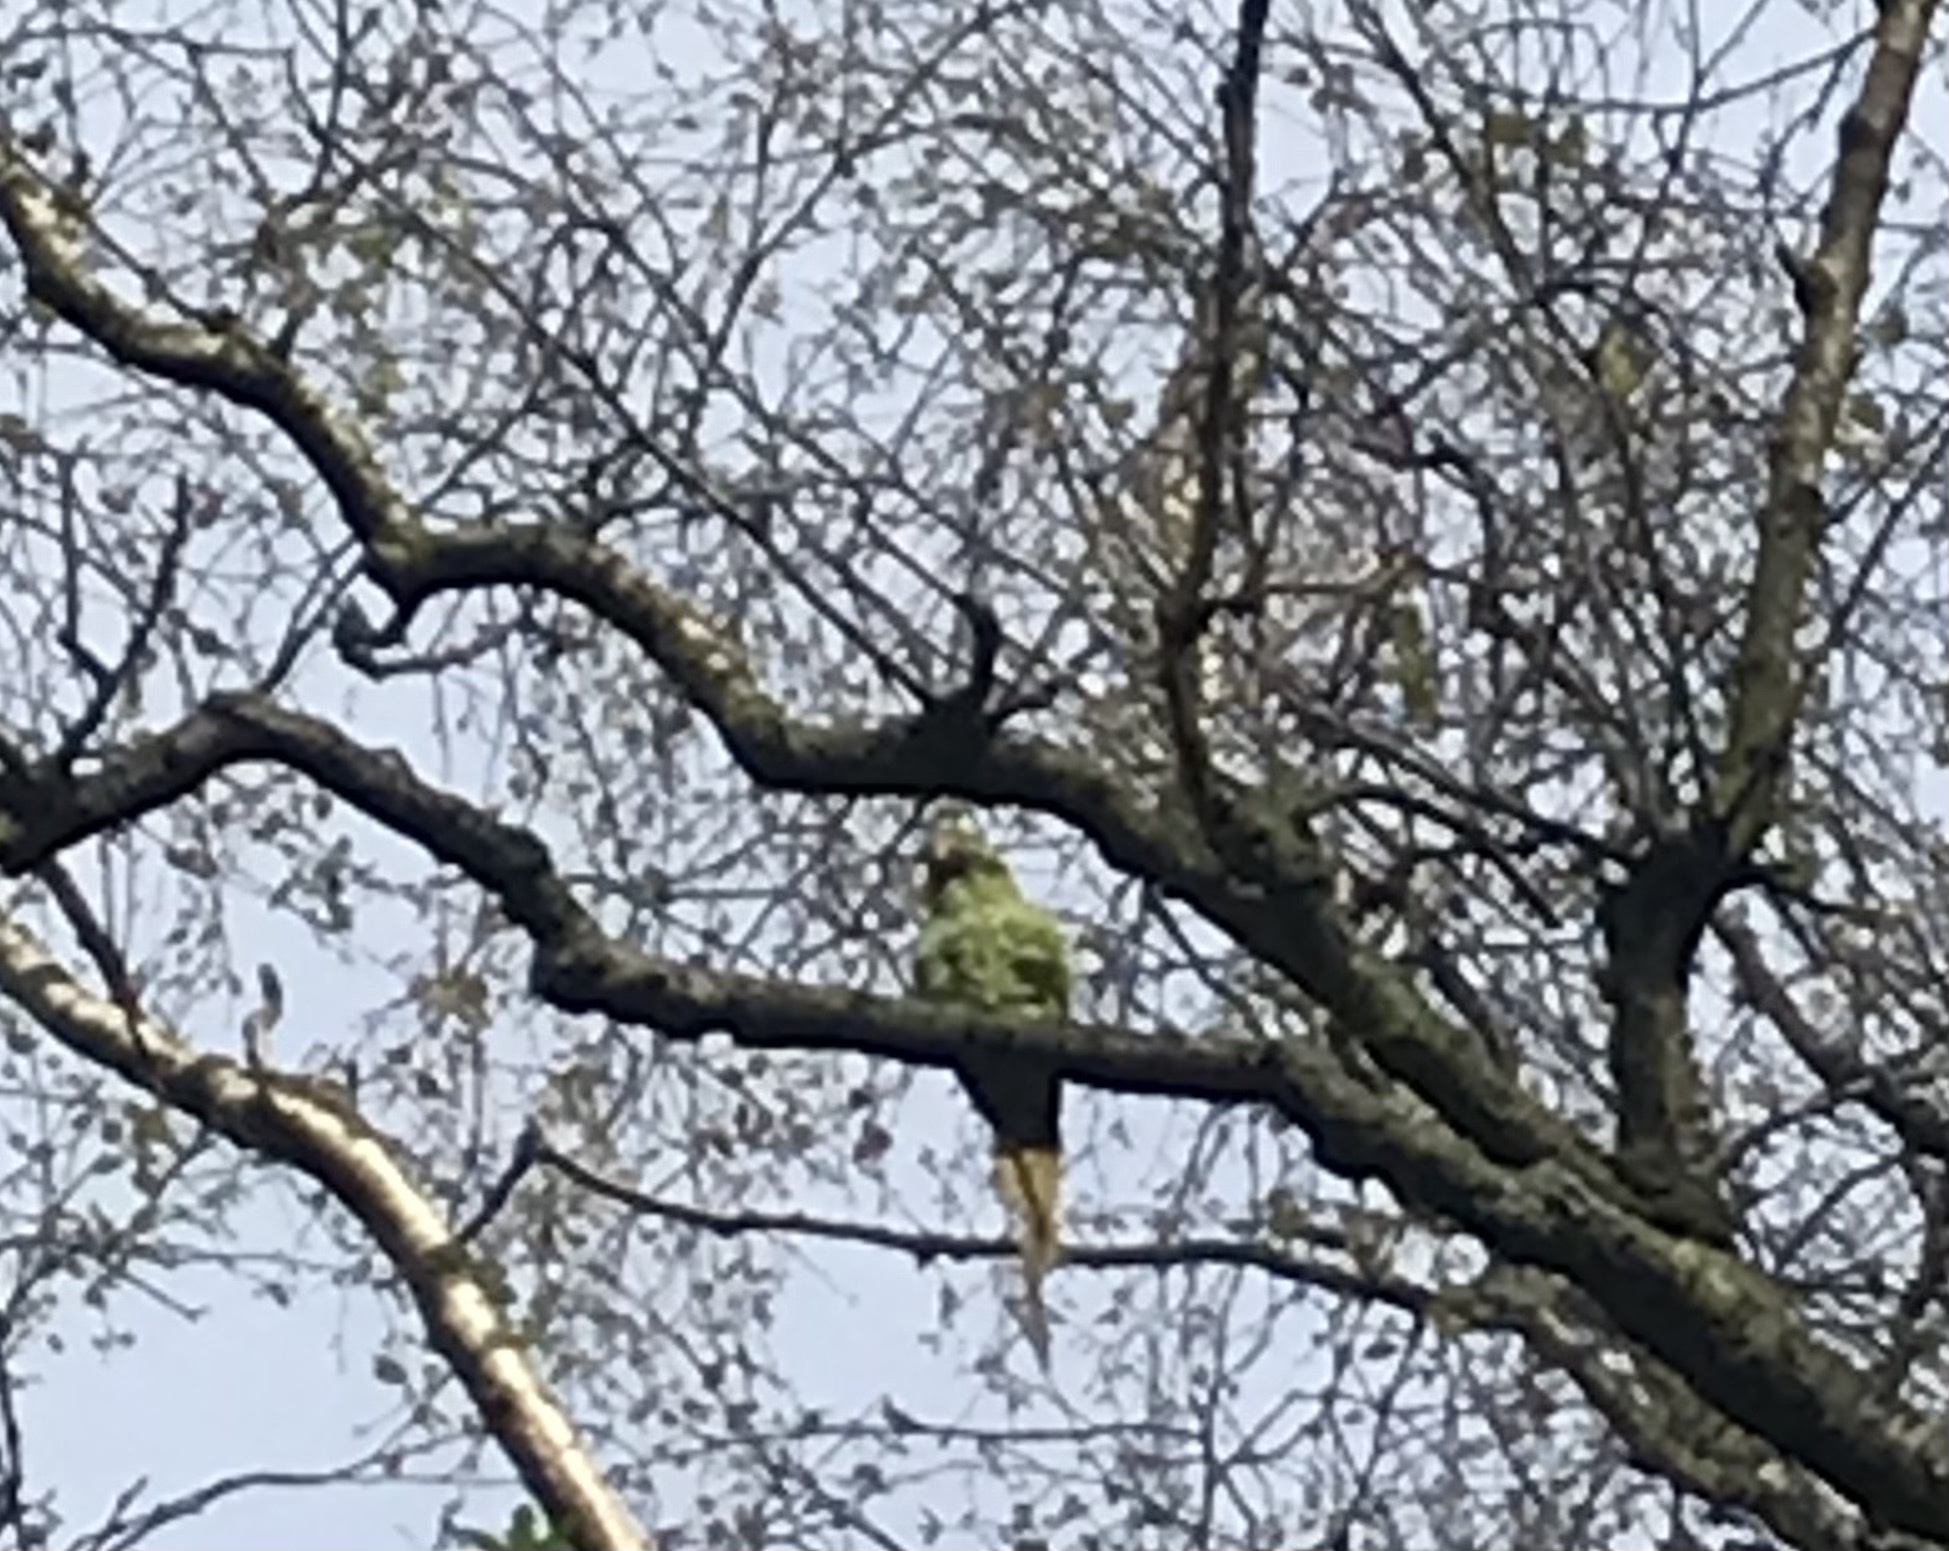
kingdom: Animalia
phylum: Chordata
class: Aves
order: Psittaciformes
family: Psittacidae
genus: Psittacula
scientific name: Psittacula krameri
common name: Rose-ringed parakeet
